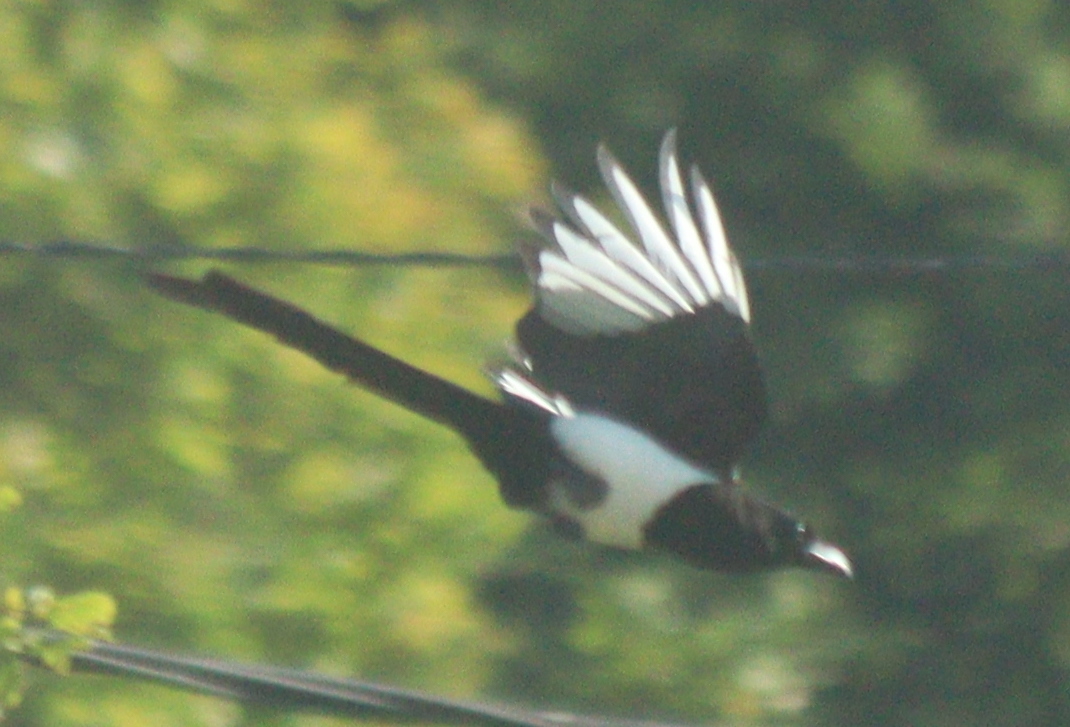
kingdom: Animalia
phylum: Chordata
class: Aves
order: Passeriformes
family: Corvidae
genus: Pica
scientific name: Pica pica
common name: Eurasian magpie
